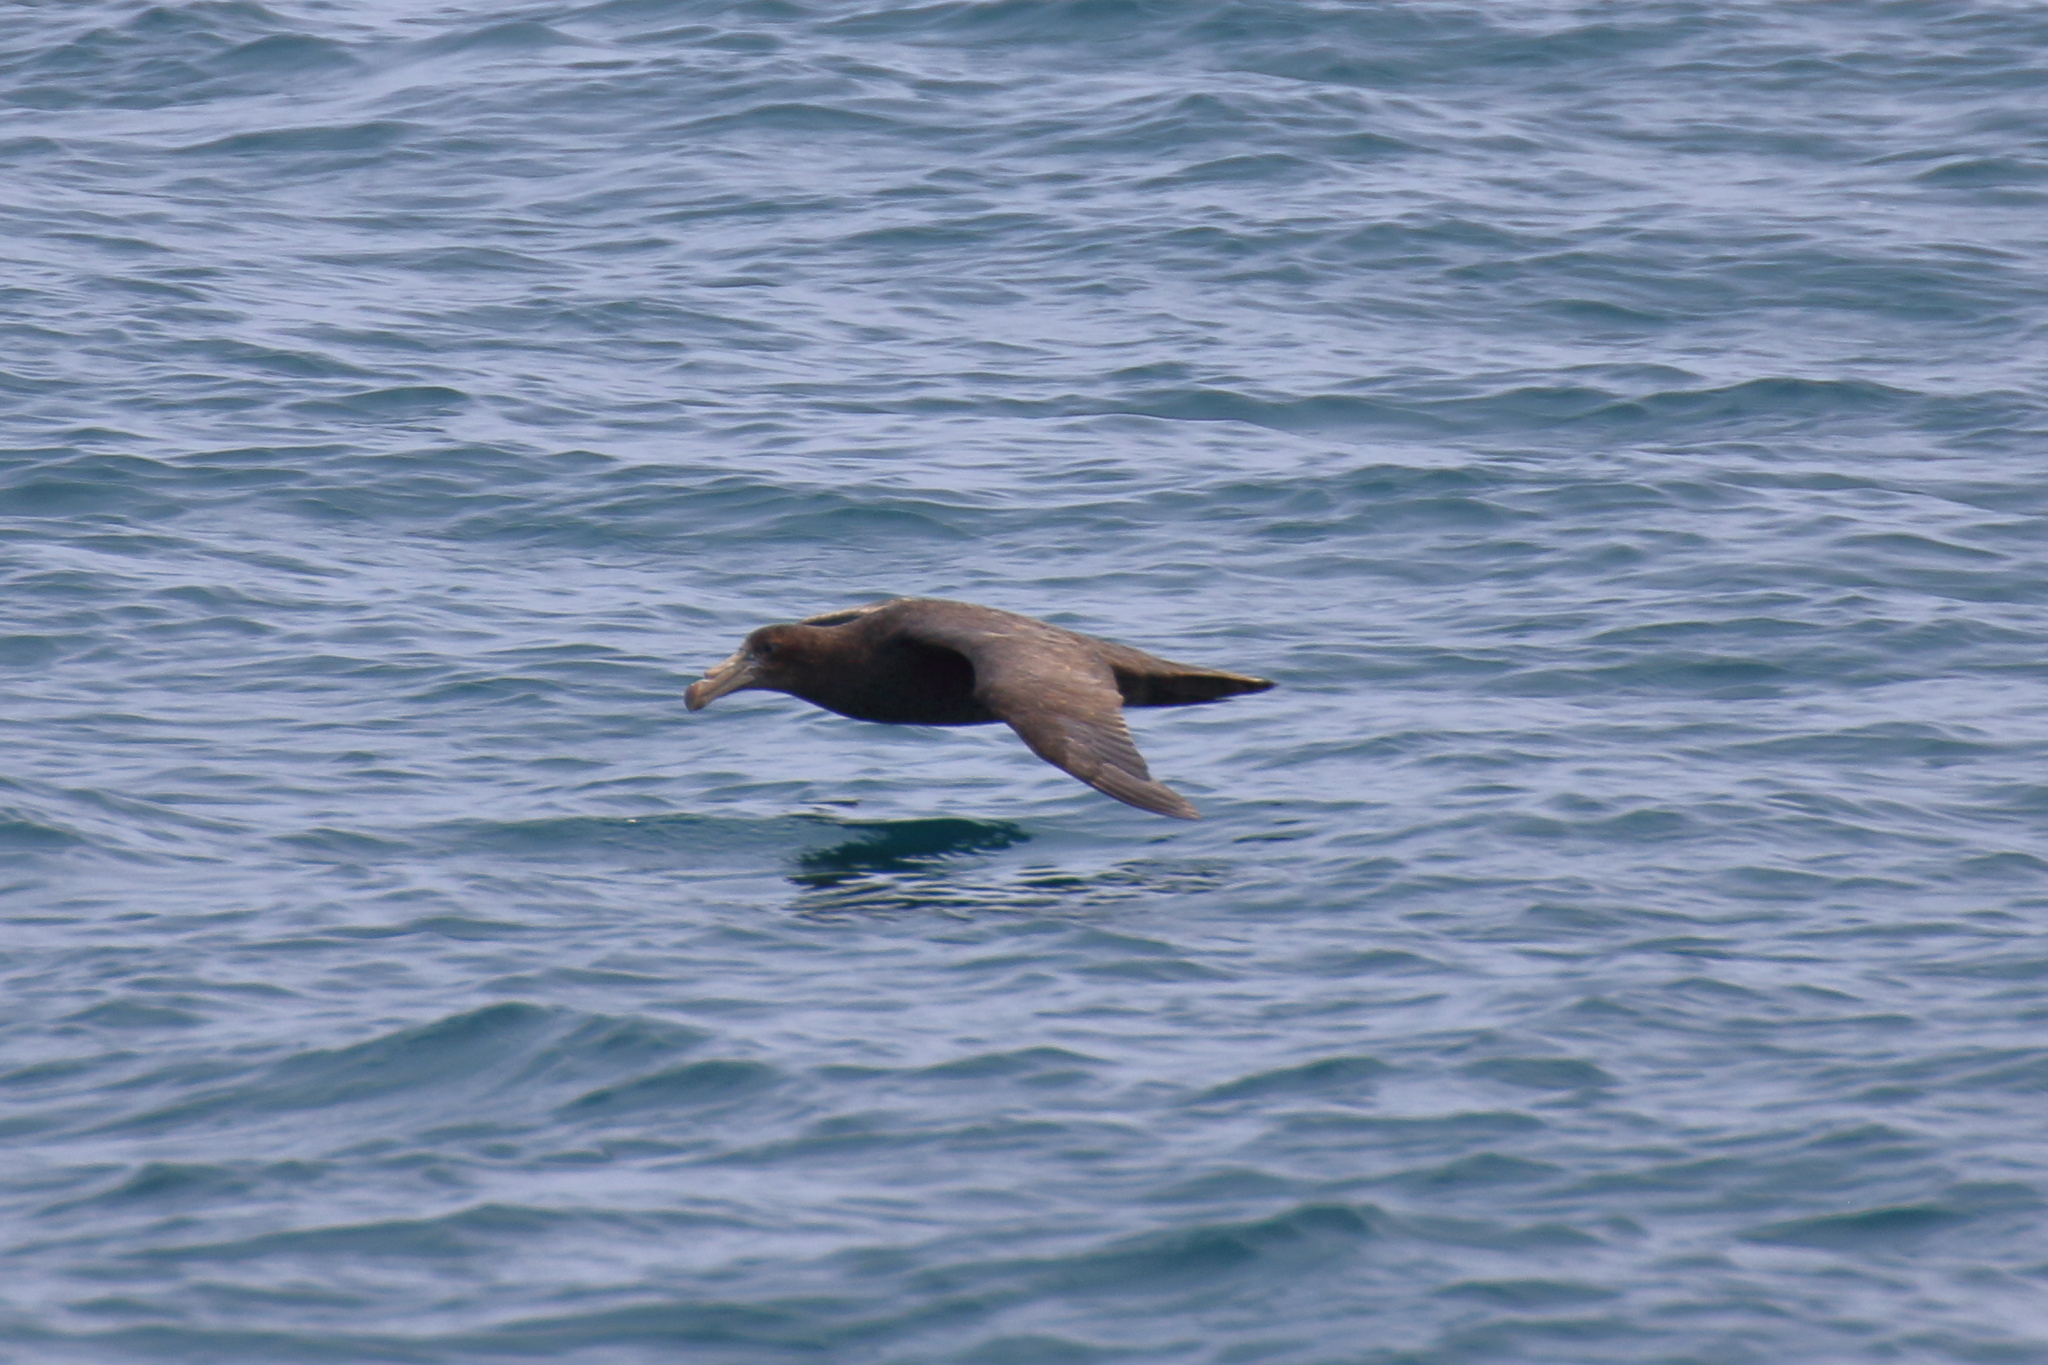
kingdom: Animalia
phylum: Chordata
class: Aves
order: Procellariiformes
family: Procellariidae
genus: Macronectes
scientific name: Macronectes halli
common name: Northern giant petrel
